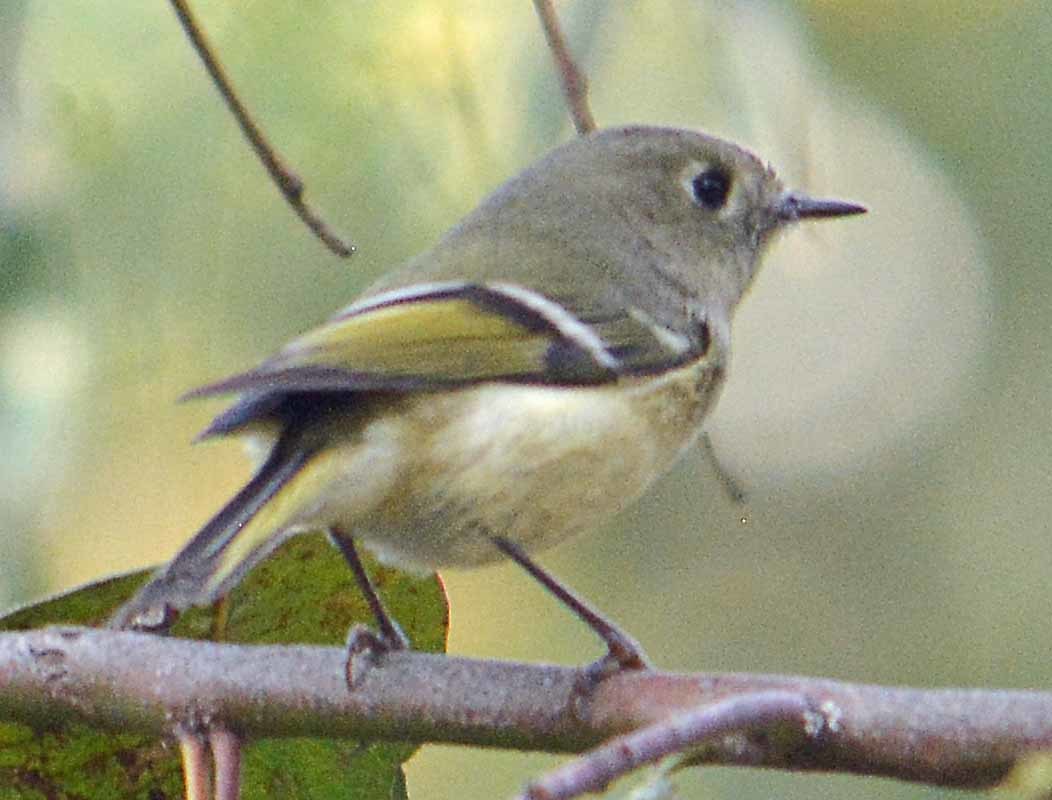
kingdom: Animalia
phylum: Chordata
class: Aves
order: Passeriformes
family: Regulidae
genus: Regulus
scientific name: Regulus calendula
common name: Ruby-crowned kinglet
